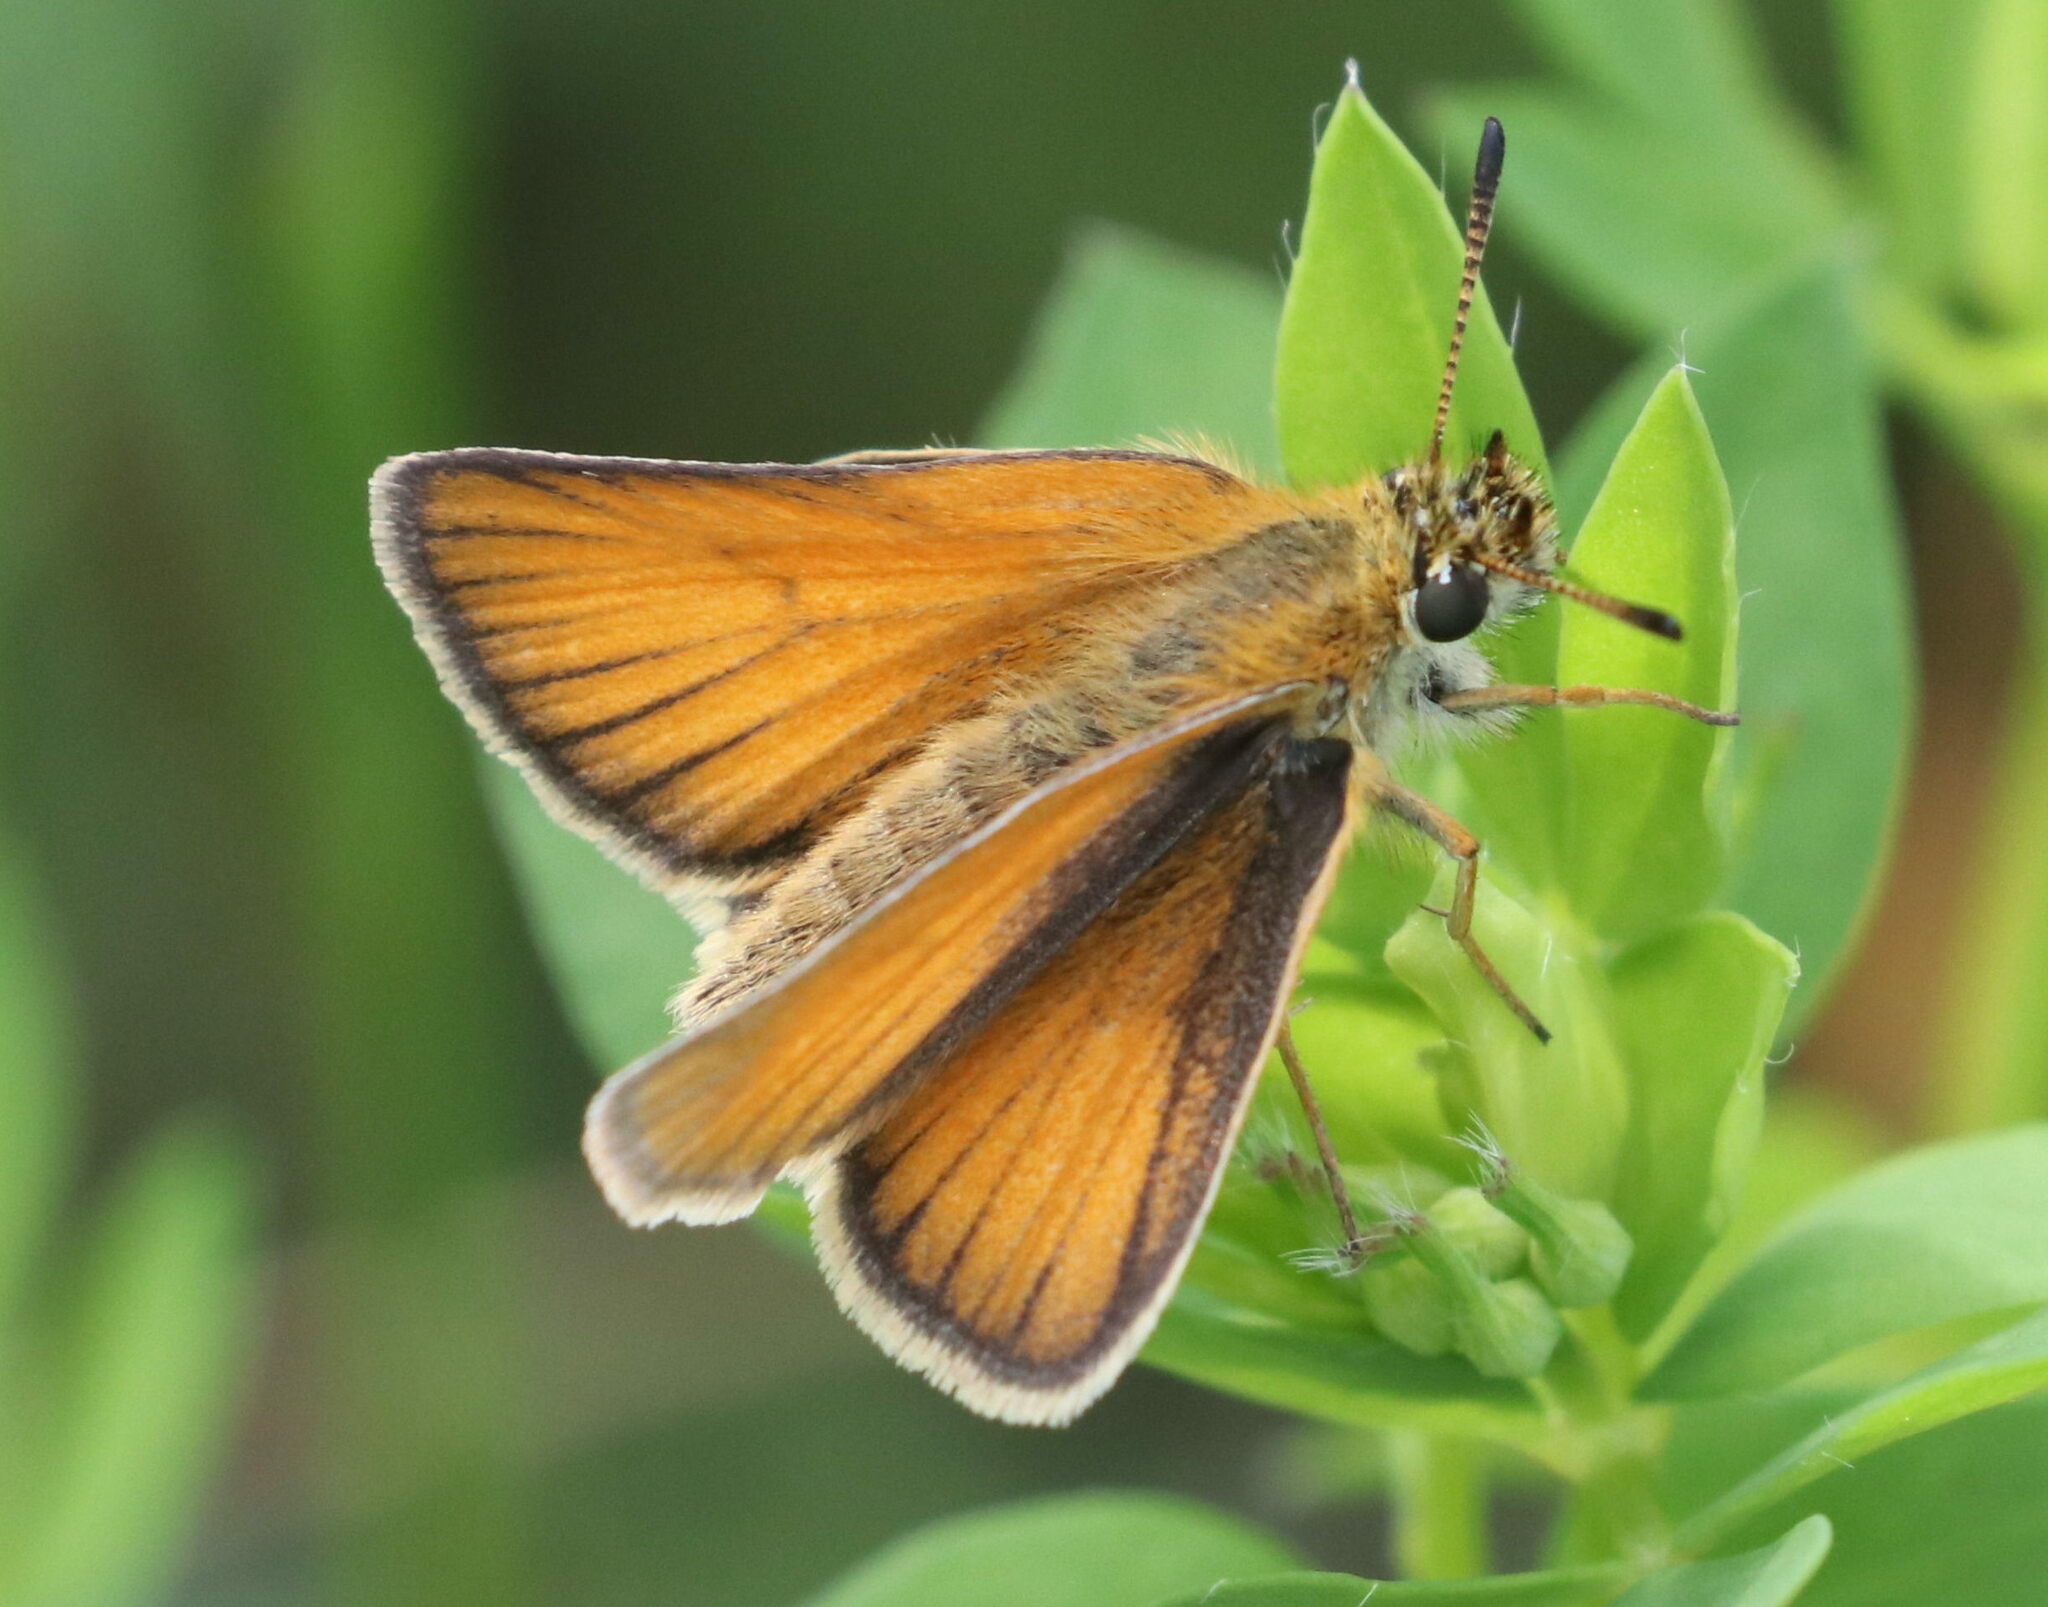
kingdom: Animalia
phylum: Arthropoda
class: Insecta
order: Lepidoptera
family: Hesperiidae
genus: Thymelicus
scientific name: Thymelicus lineola
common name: Essex skipper
